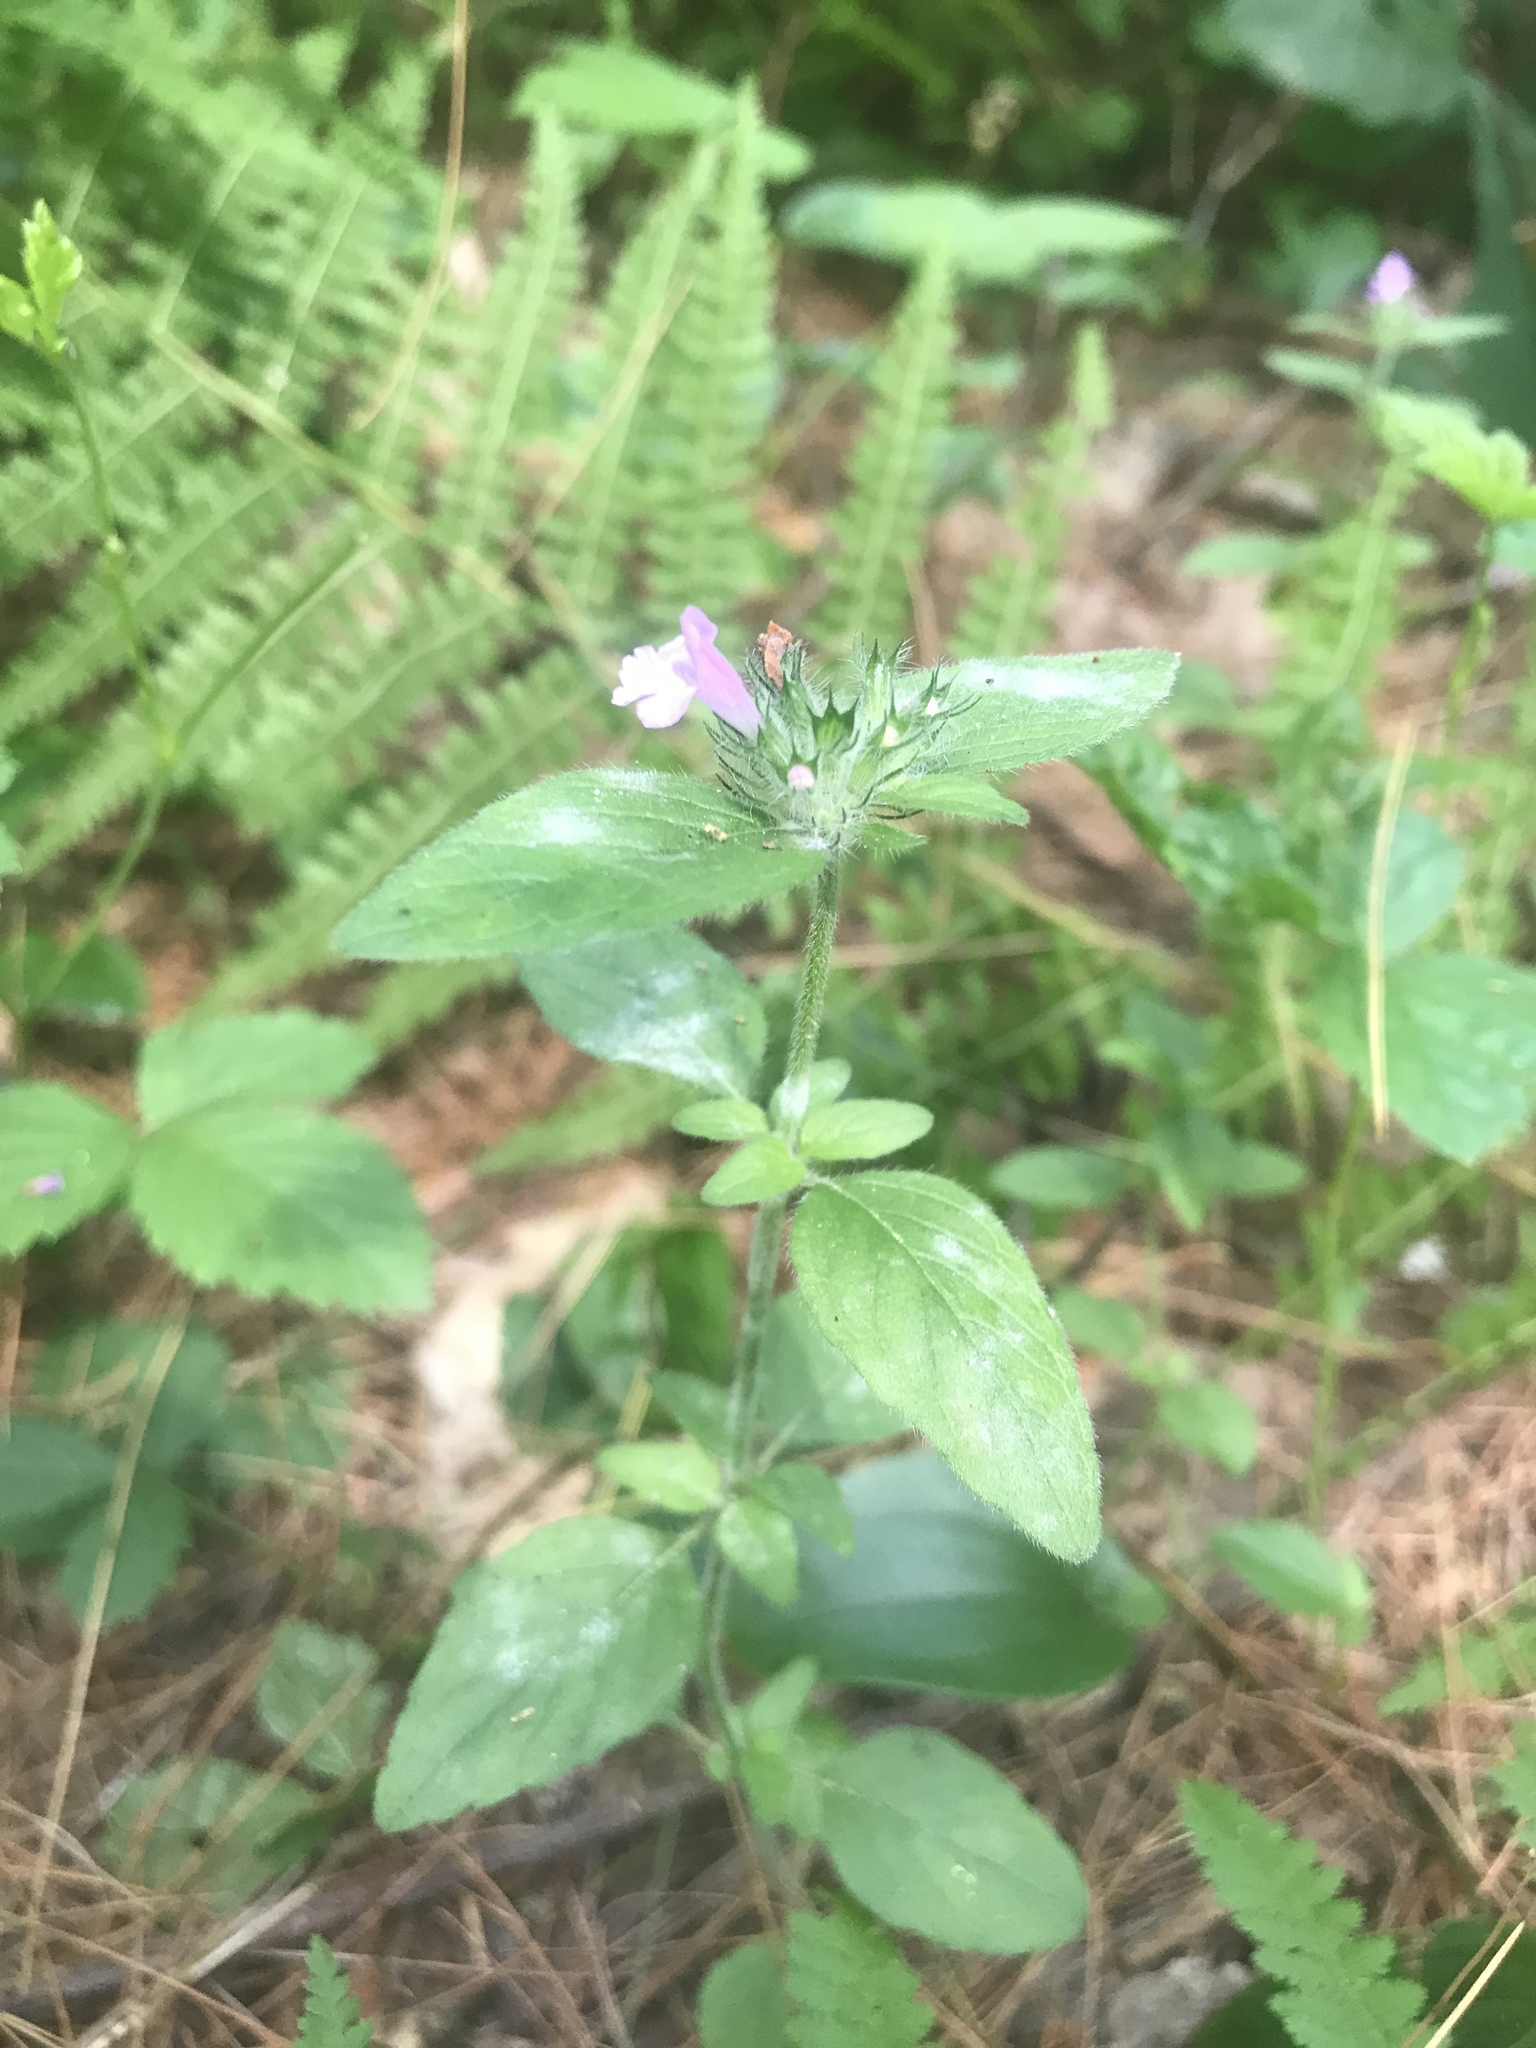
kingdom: Plantae
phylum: Tracheophyta
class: Magnoliopsida
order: Lamiales
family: Lamiaceae
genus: Clinopodium
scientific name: Clinopodium vulgare
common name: Wild basil
